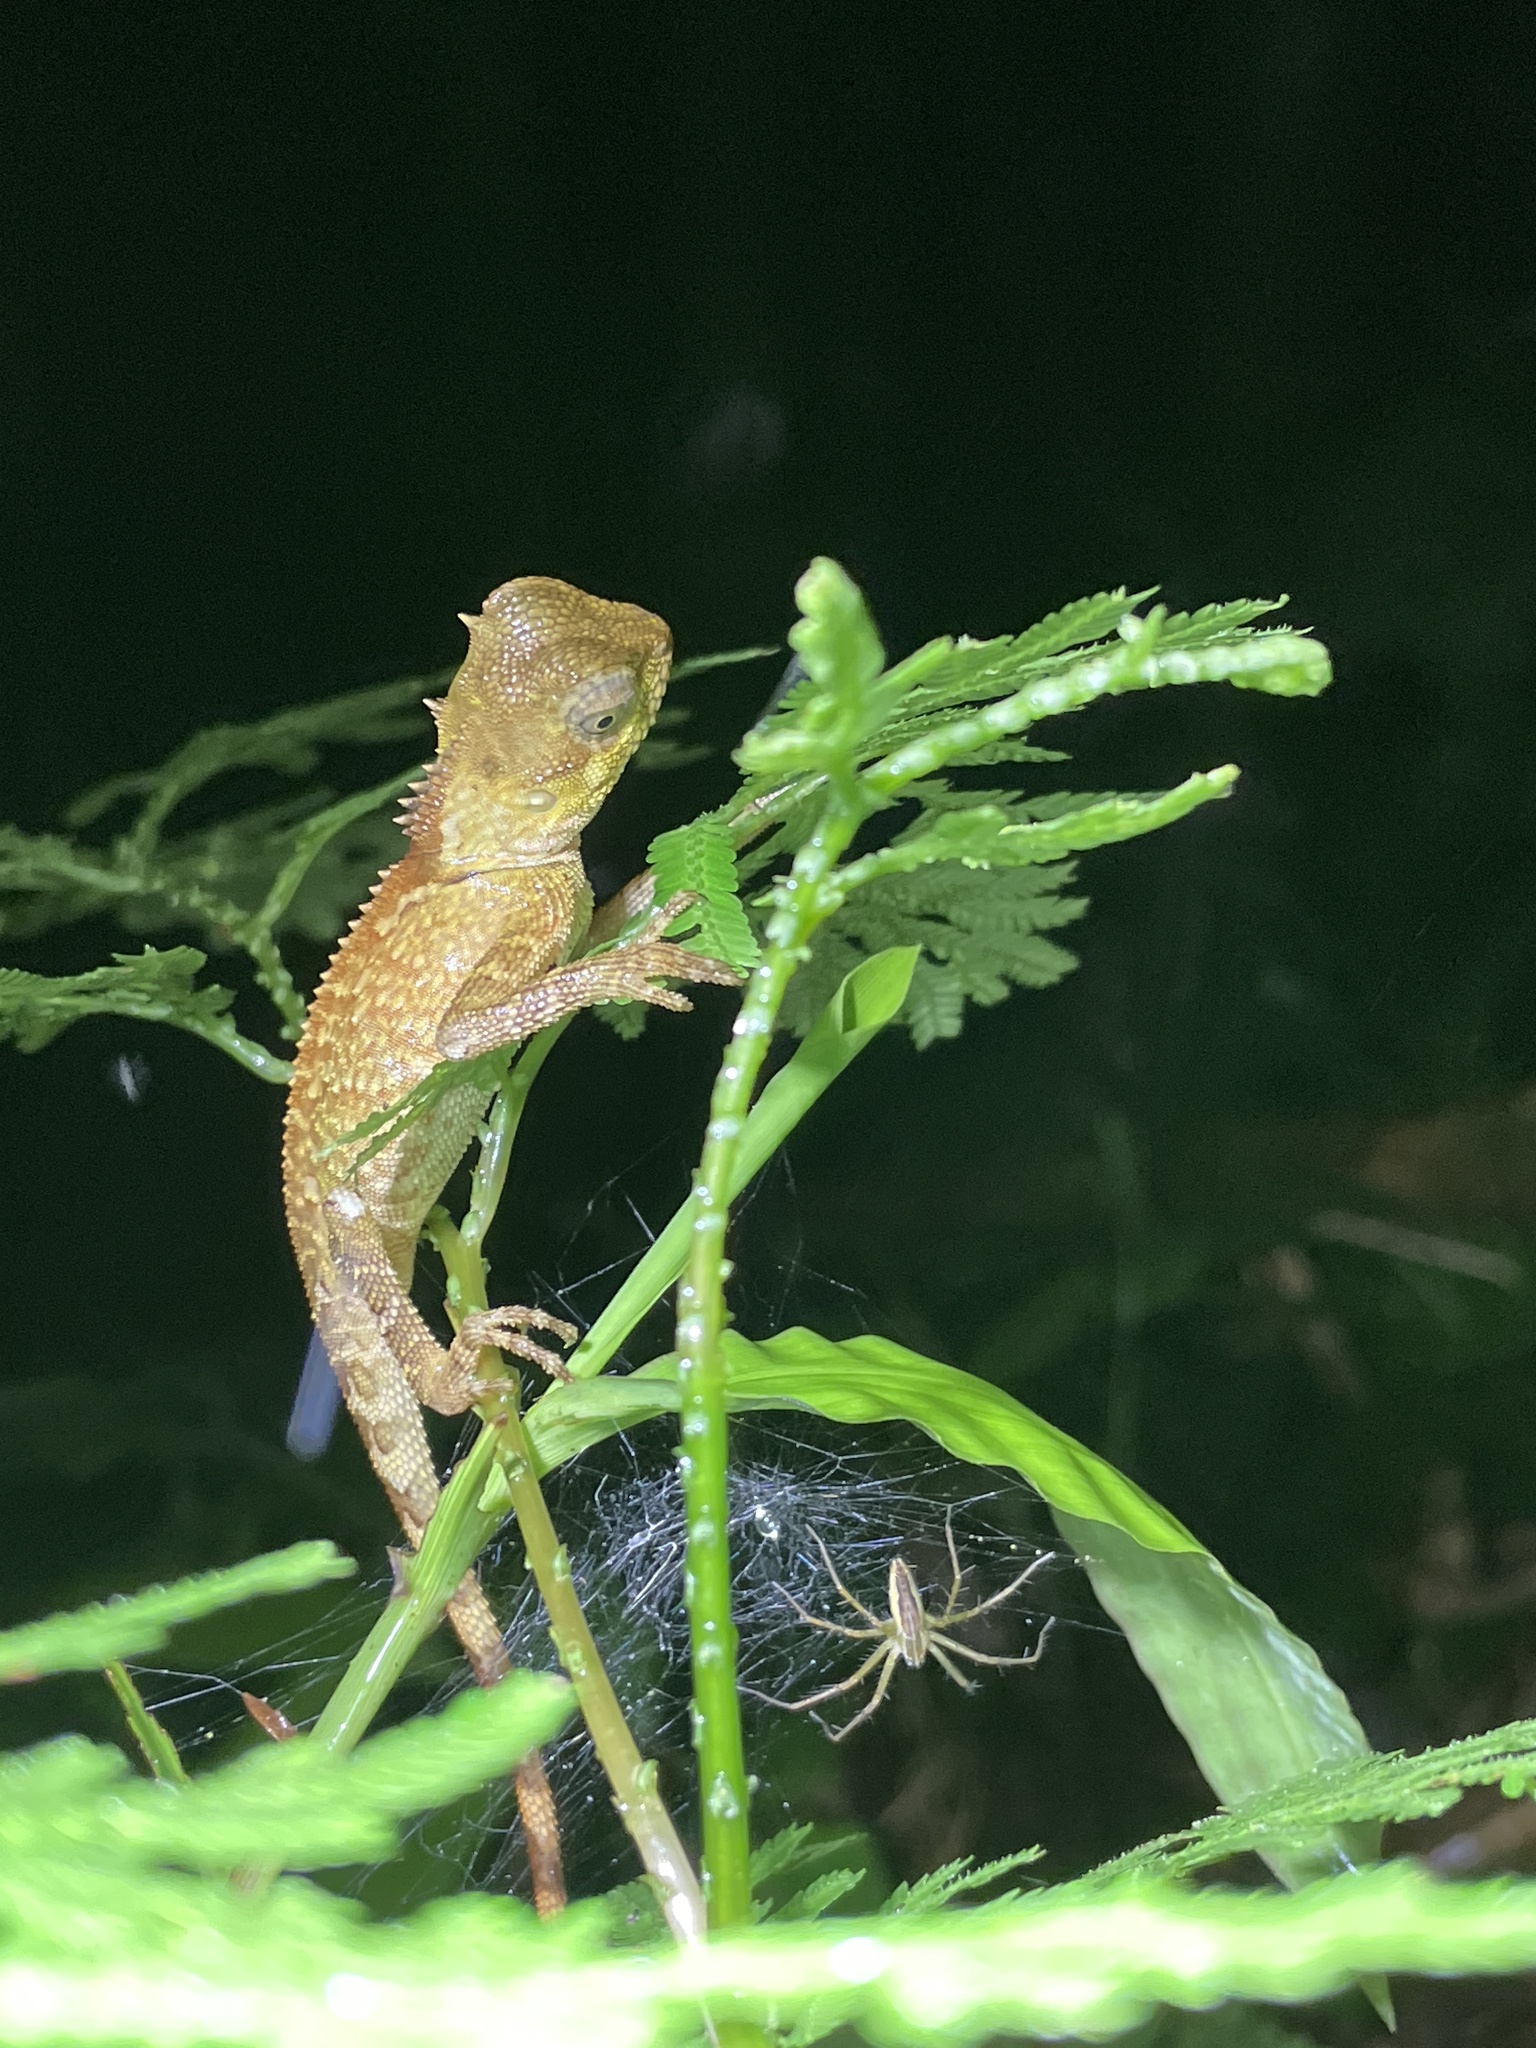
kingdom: Animalia
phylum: Chordata
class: Squamata
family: Agamidae
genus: Acanthosaura
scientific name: Acanthosaura phuketensis
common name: Phuket horned tree agamid
